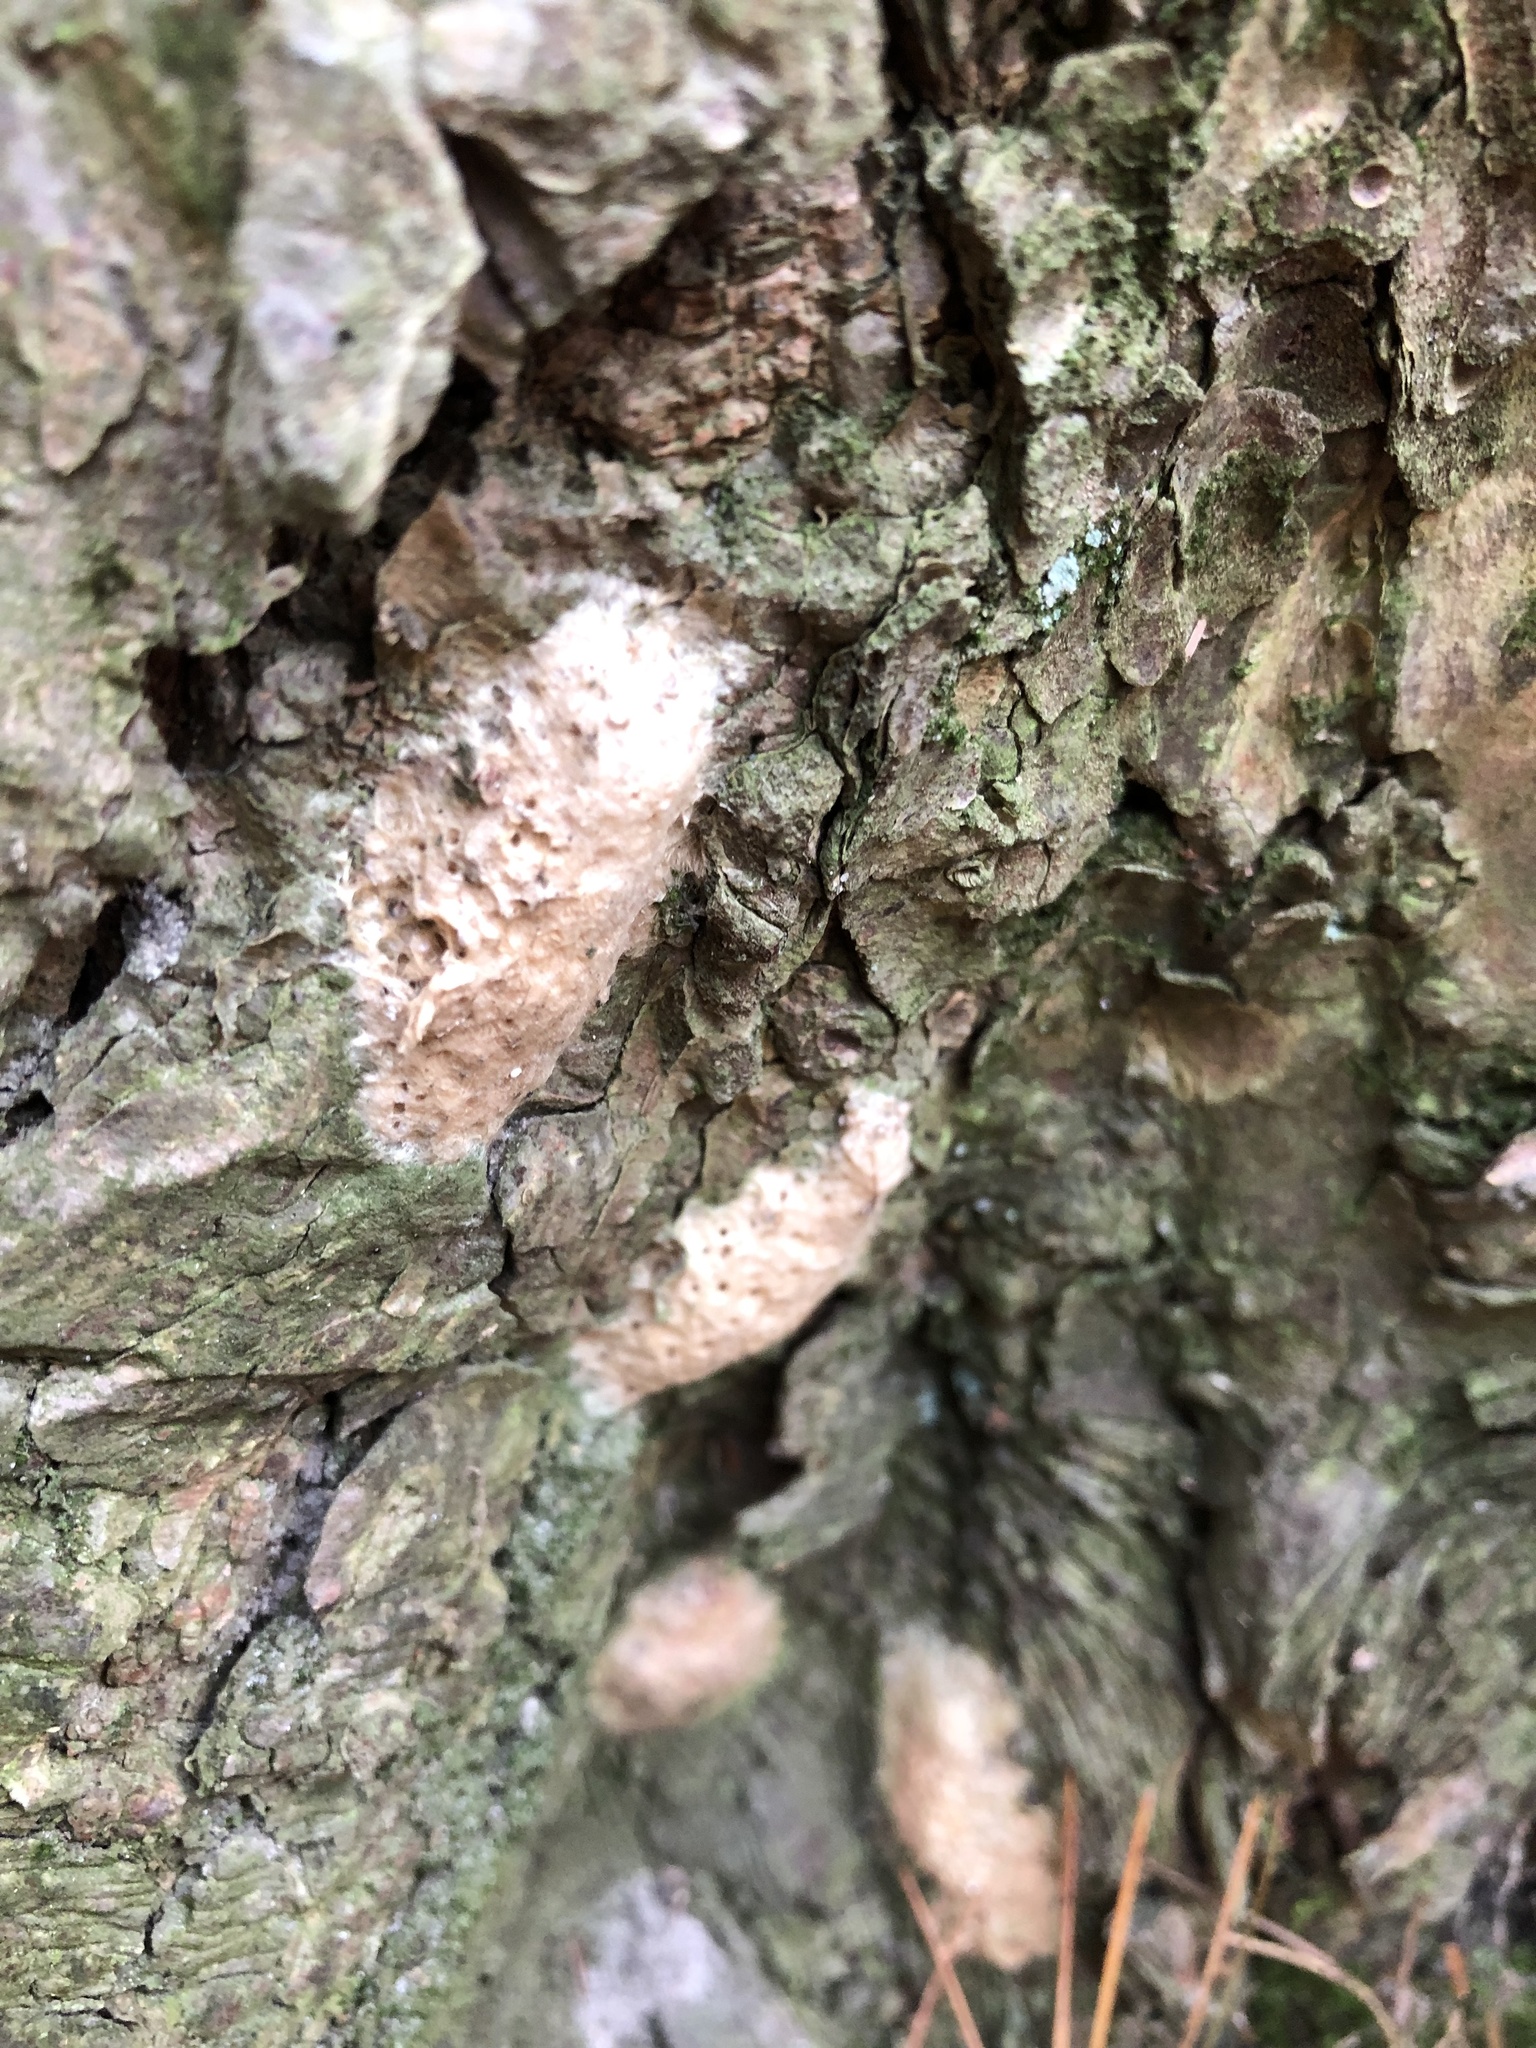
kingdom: Animalia
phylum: Arthropoda
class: Insecta
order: Lepidoptera
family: Erebidae
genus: Lymantria
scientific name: Lymantria dispar
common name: Gypsy moth
